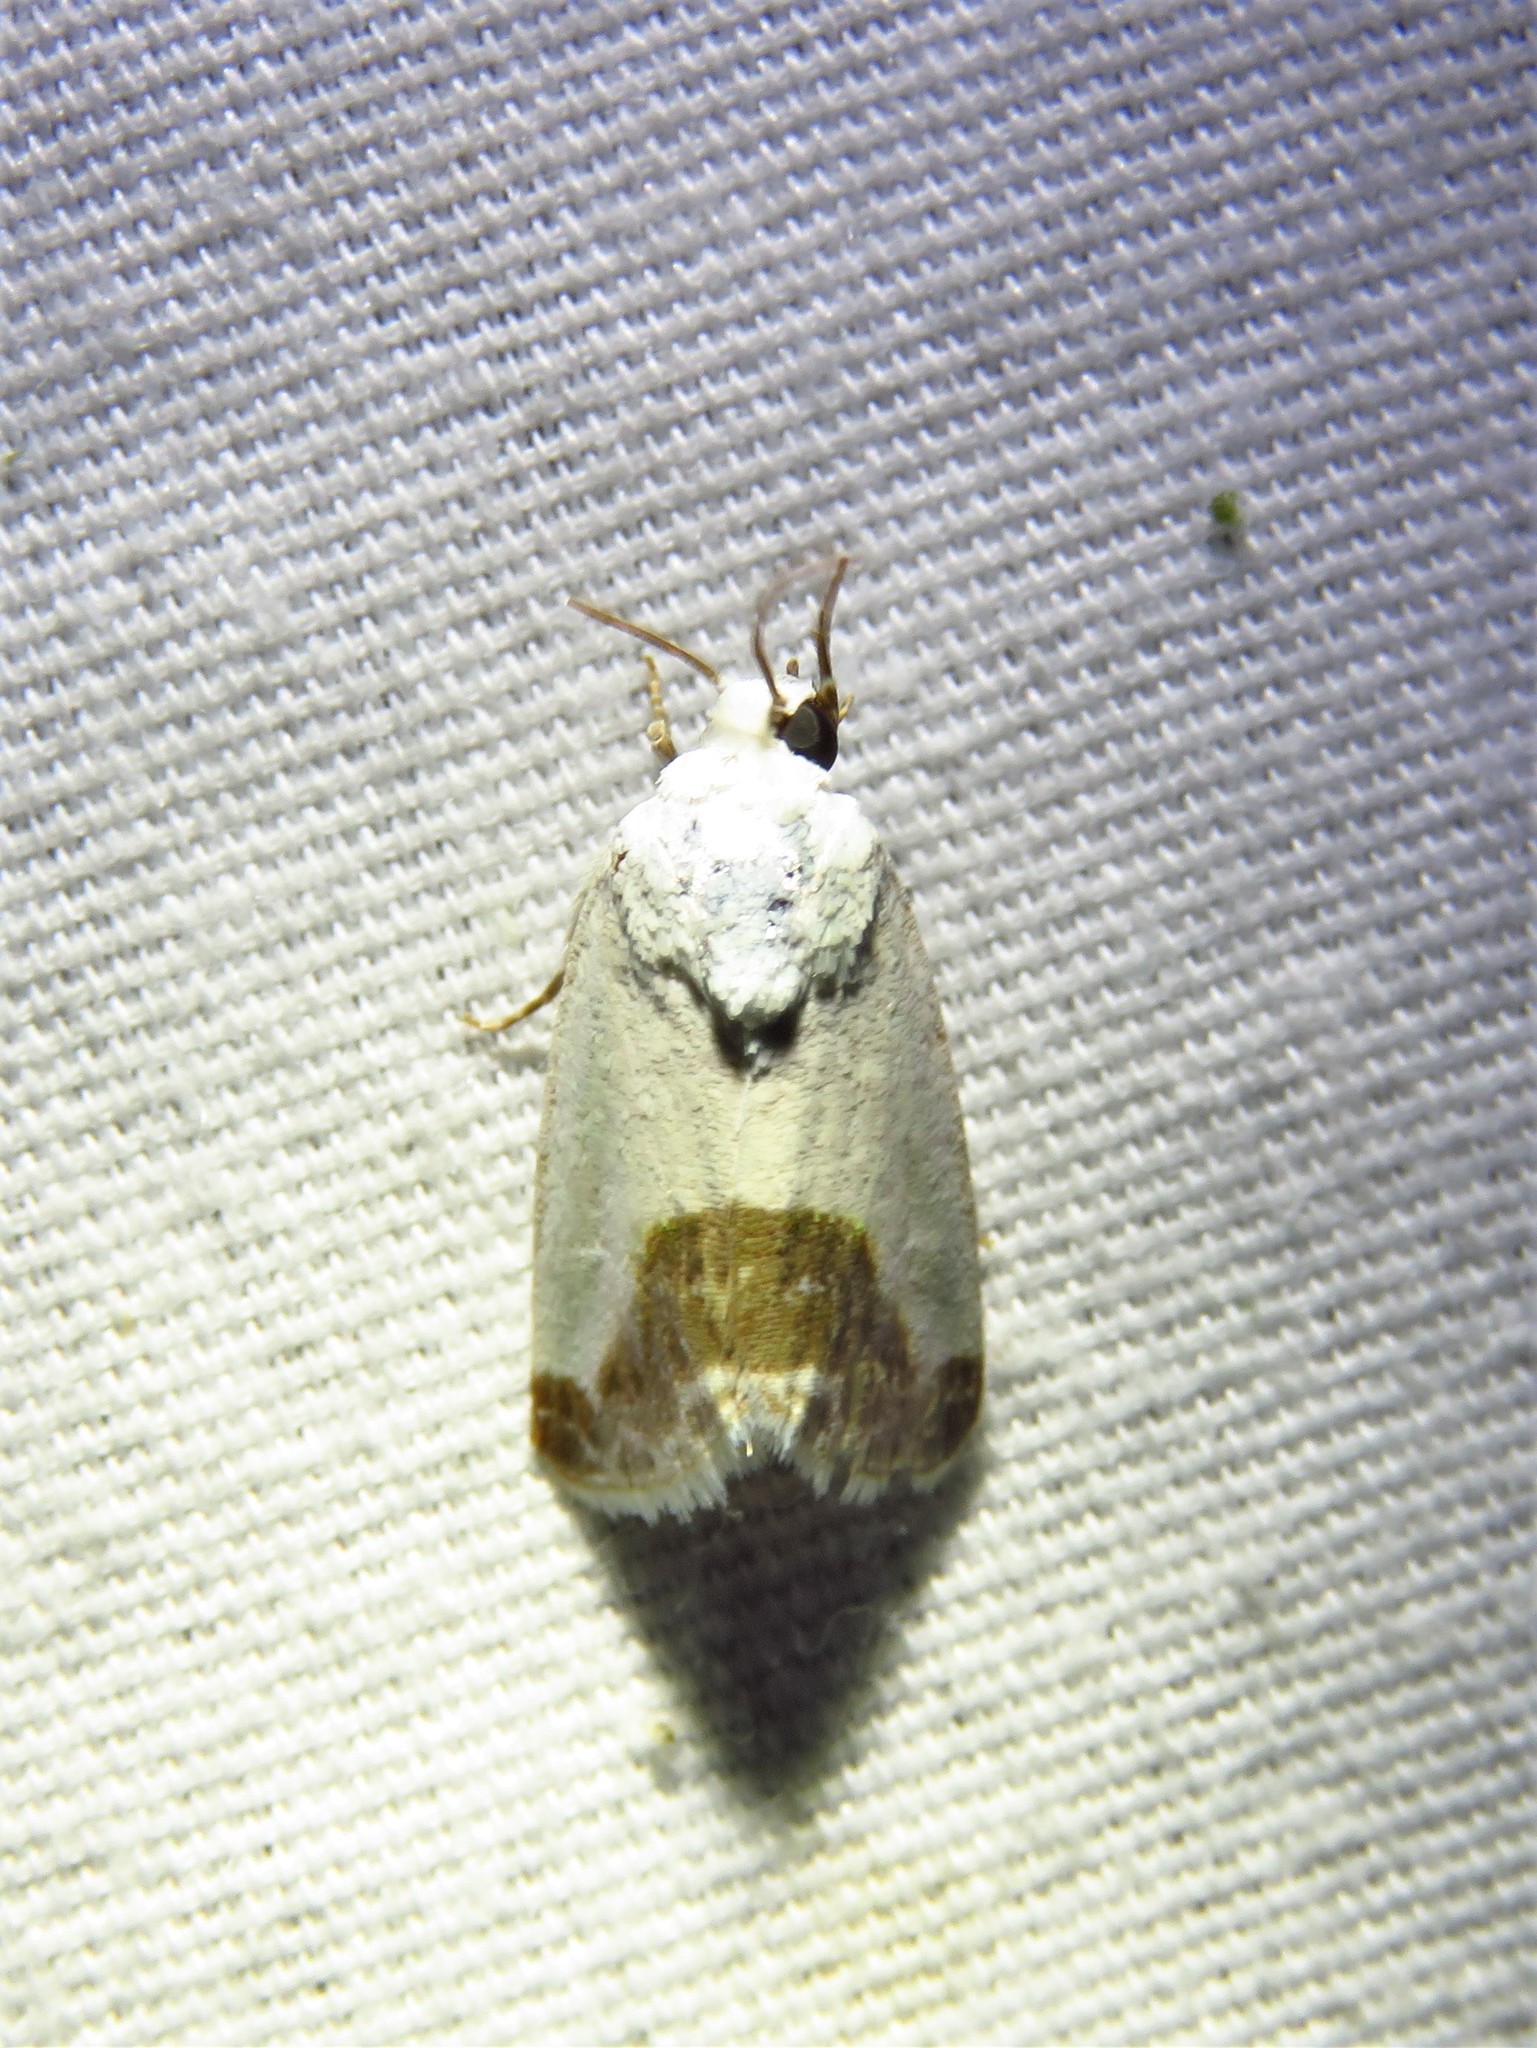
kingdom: Animalia
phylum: Arthropoda
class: Insecta
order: Lepidoptera
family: Noctuidae
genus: Acontia
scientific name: Acontia cretata
